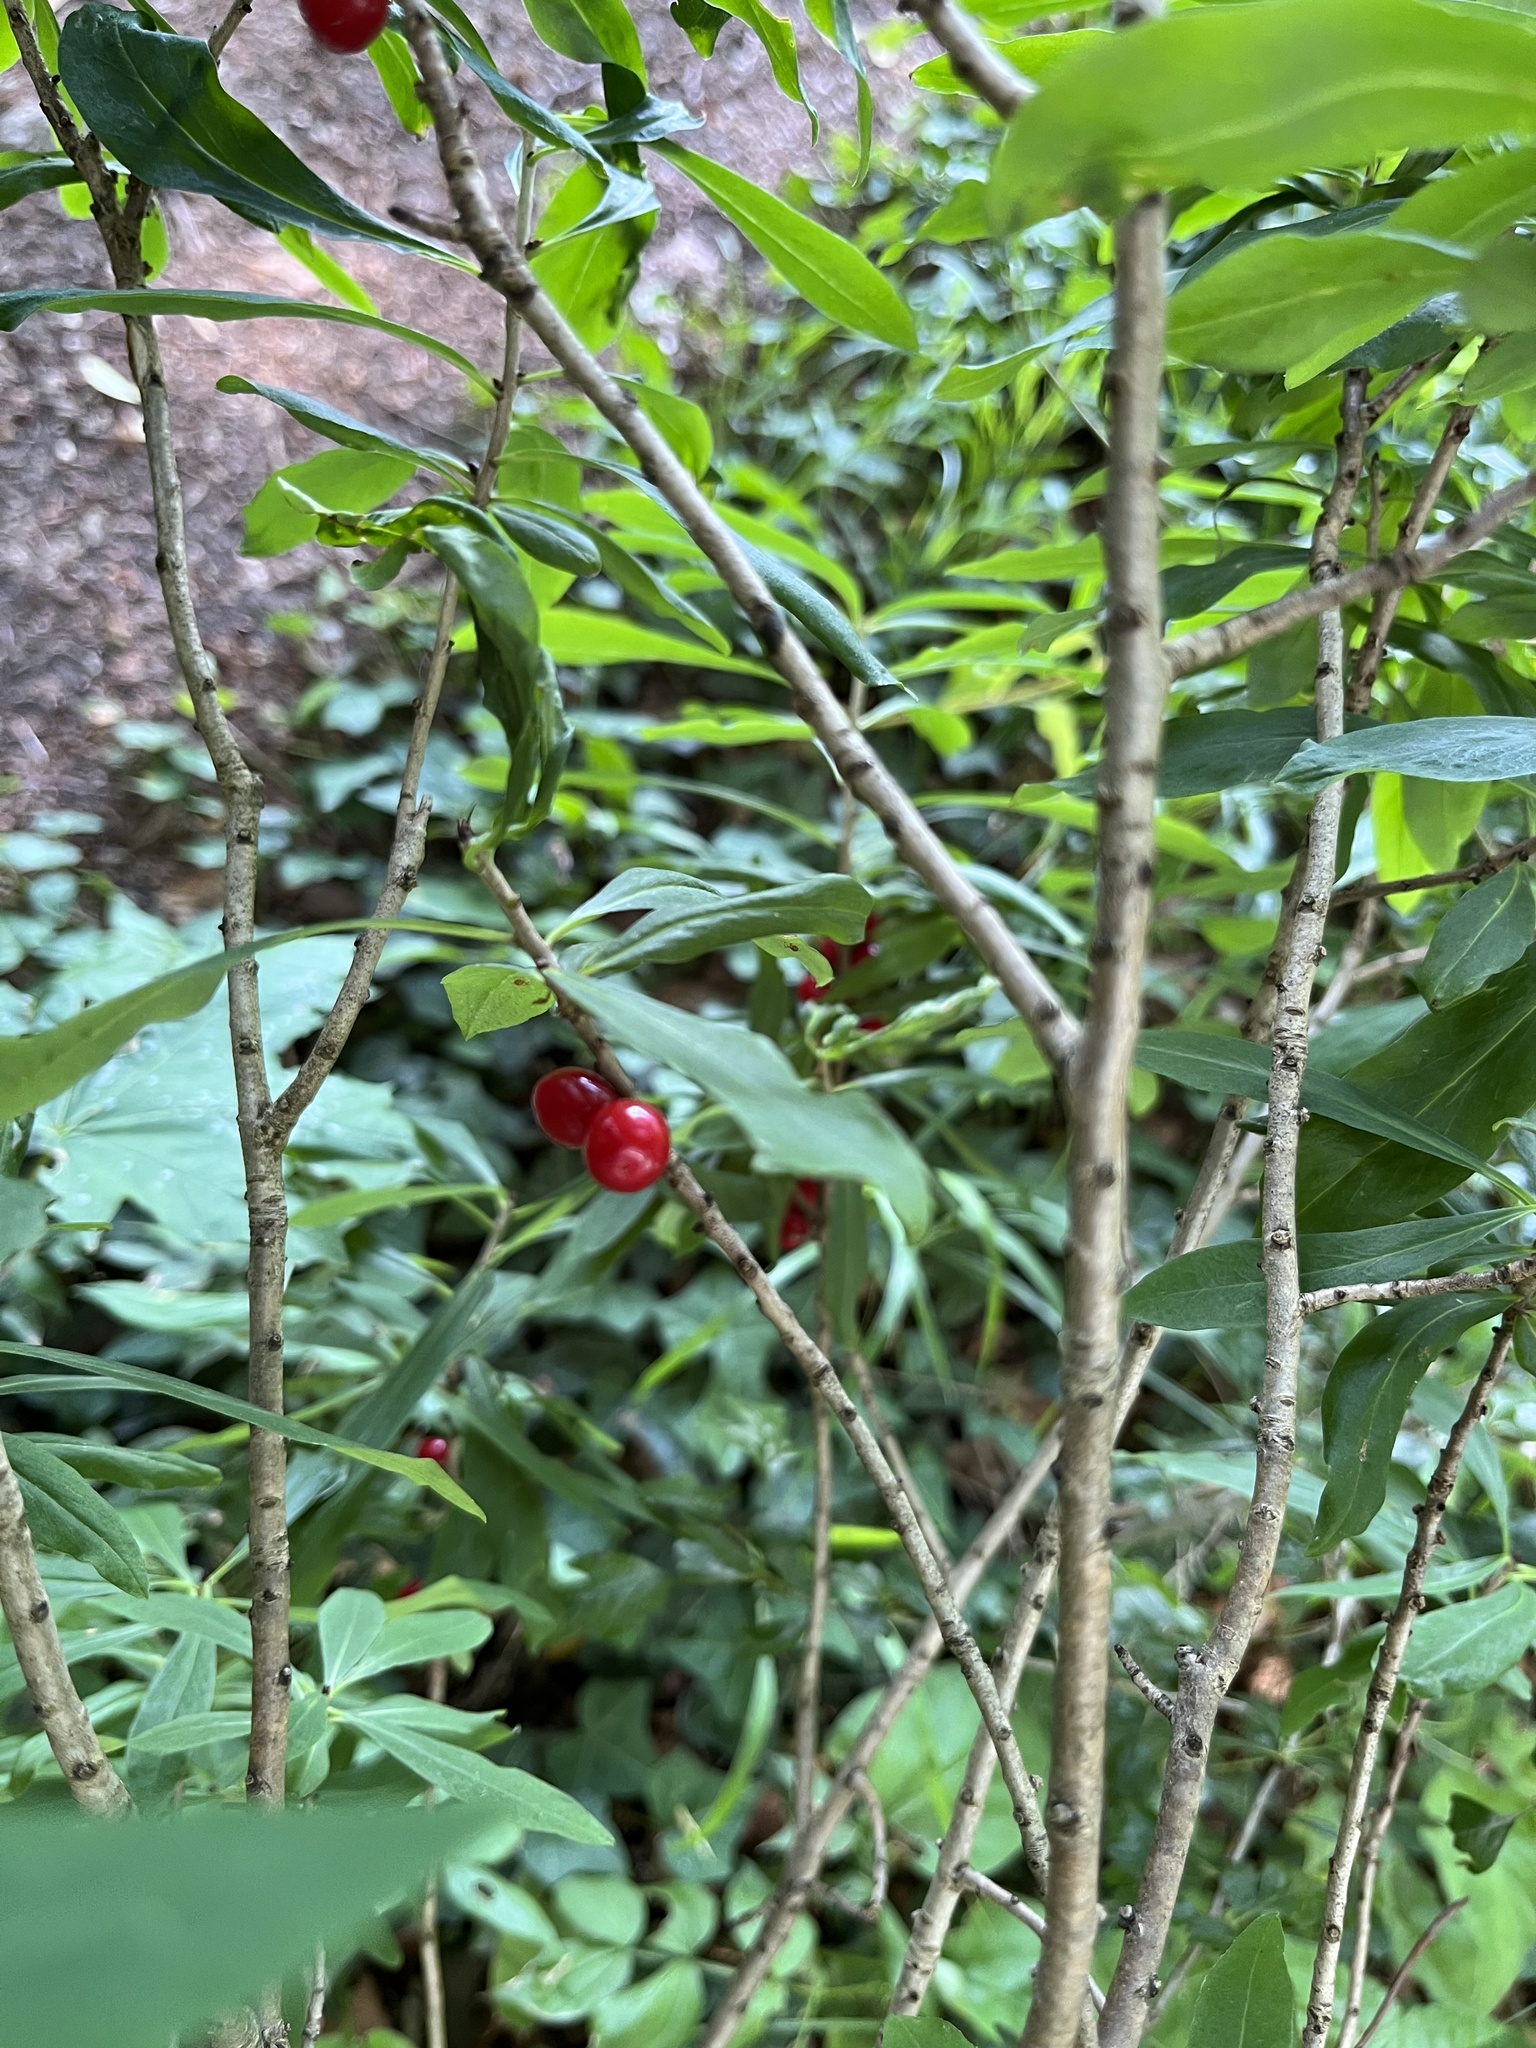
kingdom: Plantae
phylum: Tracheophyta
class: Magnoliopsida
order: Malvales
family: Thymelaeaceae
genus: Daphne
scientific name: Daphne mezereum
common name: Mezereon
